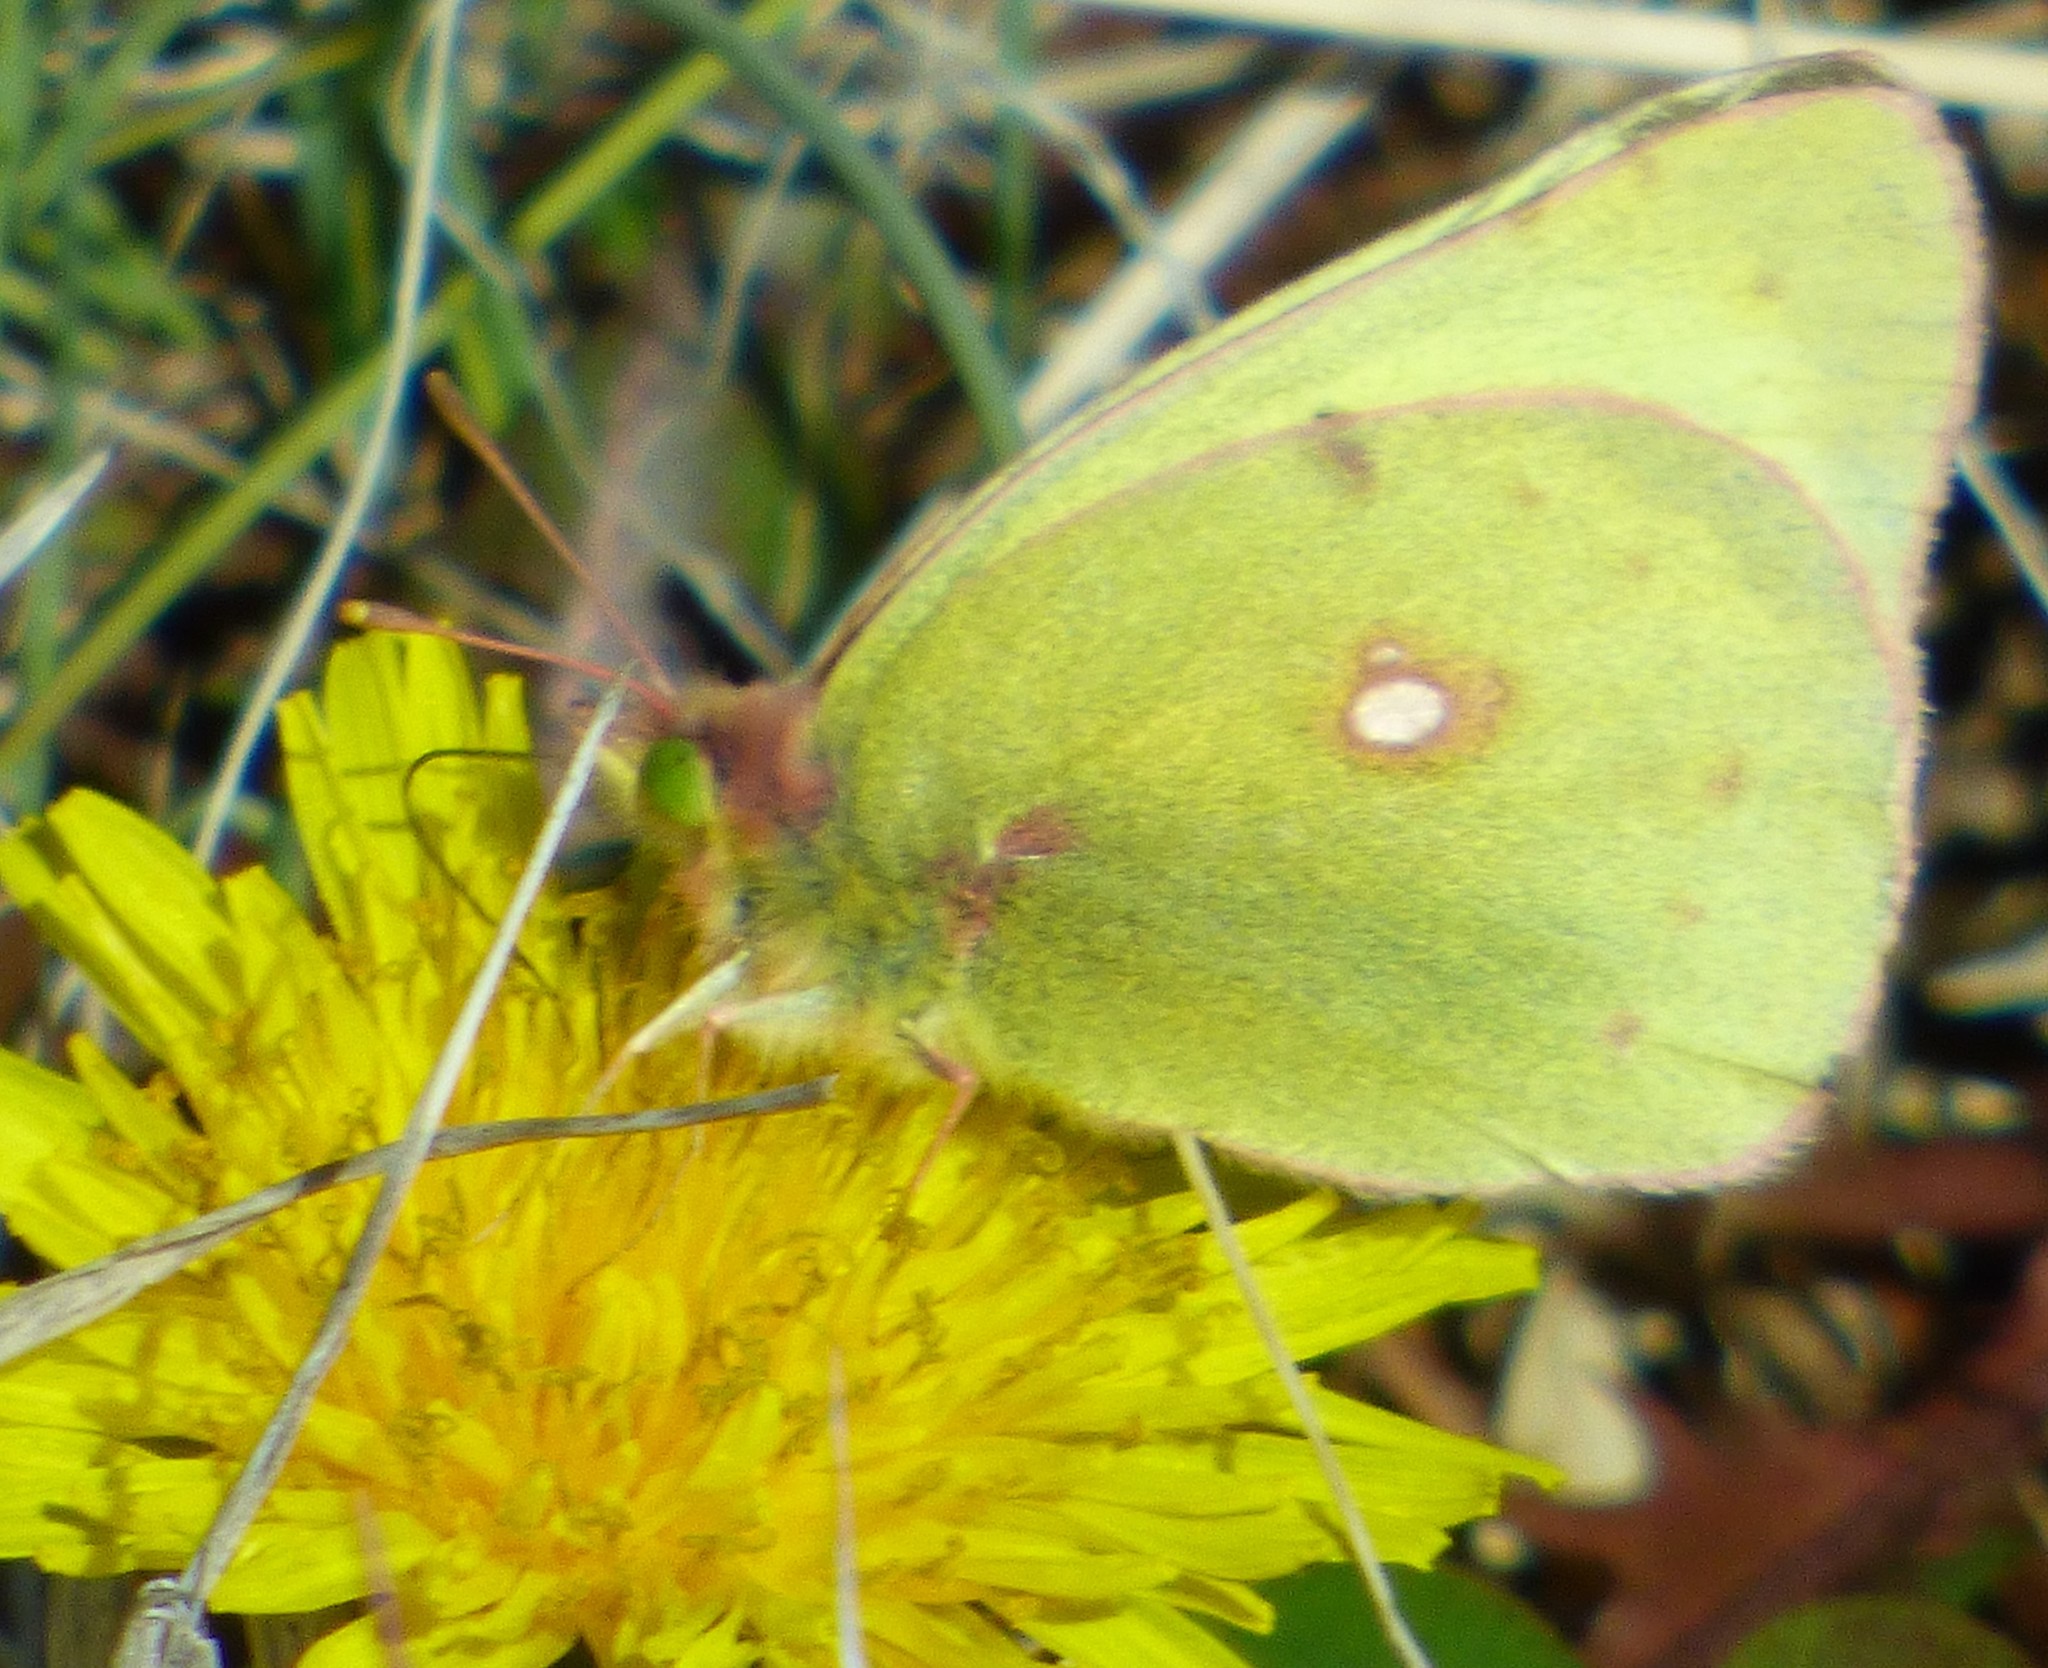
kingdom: Animalia
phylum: Arthropoda
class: Insecta
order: Lepidoptera
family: Pieridae
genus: Colias
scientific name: Colias philodice
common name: Clouded sulphur
